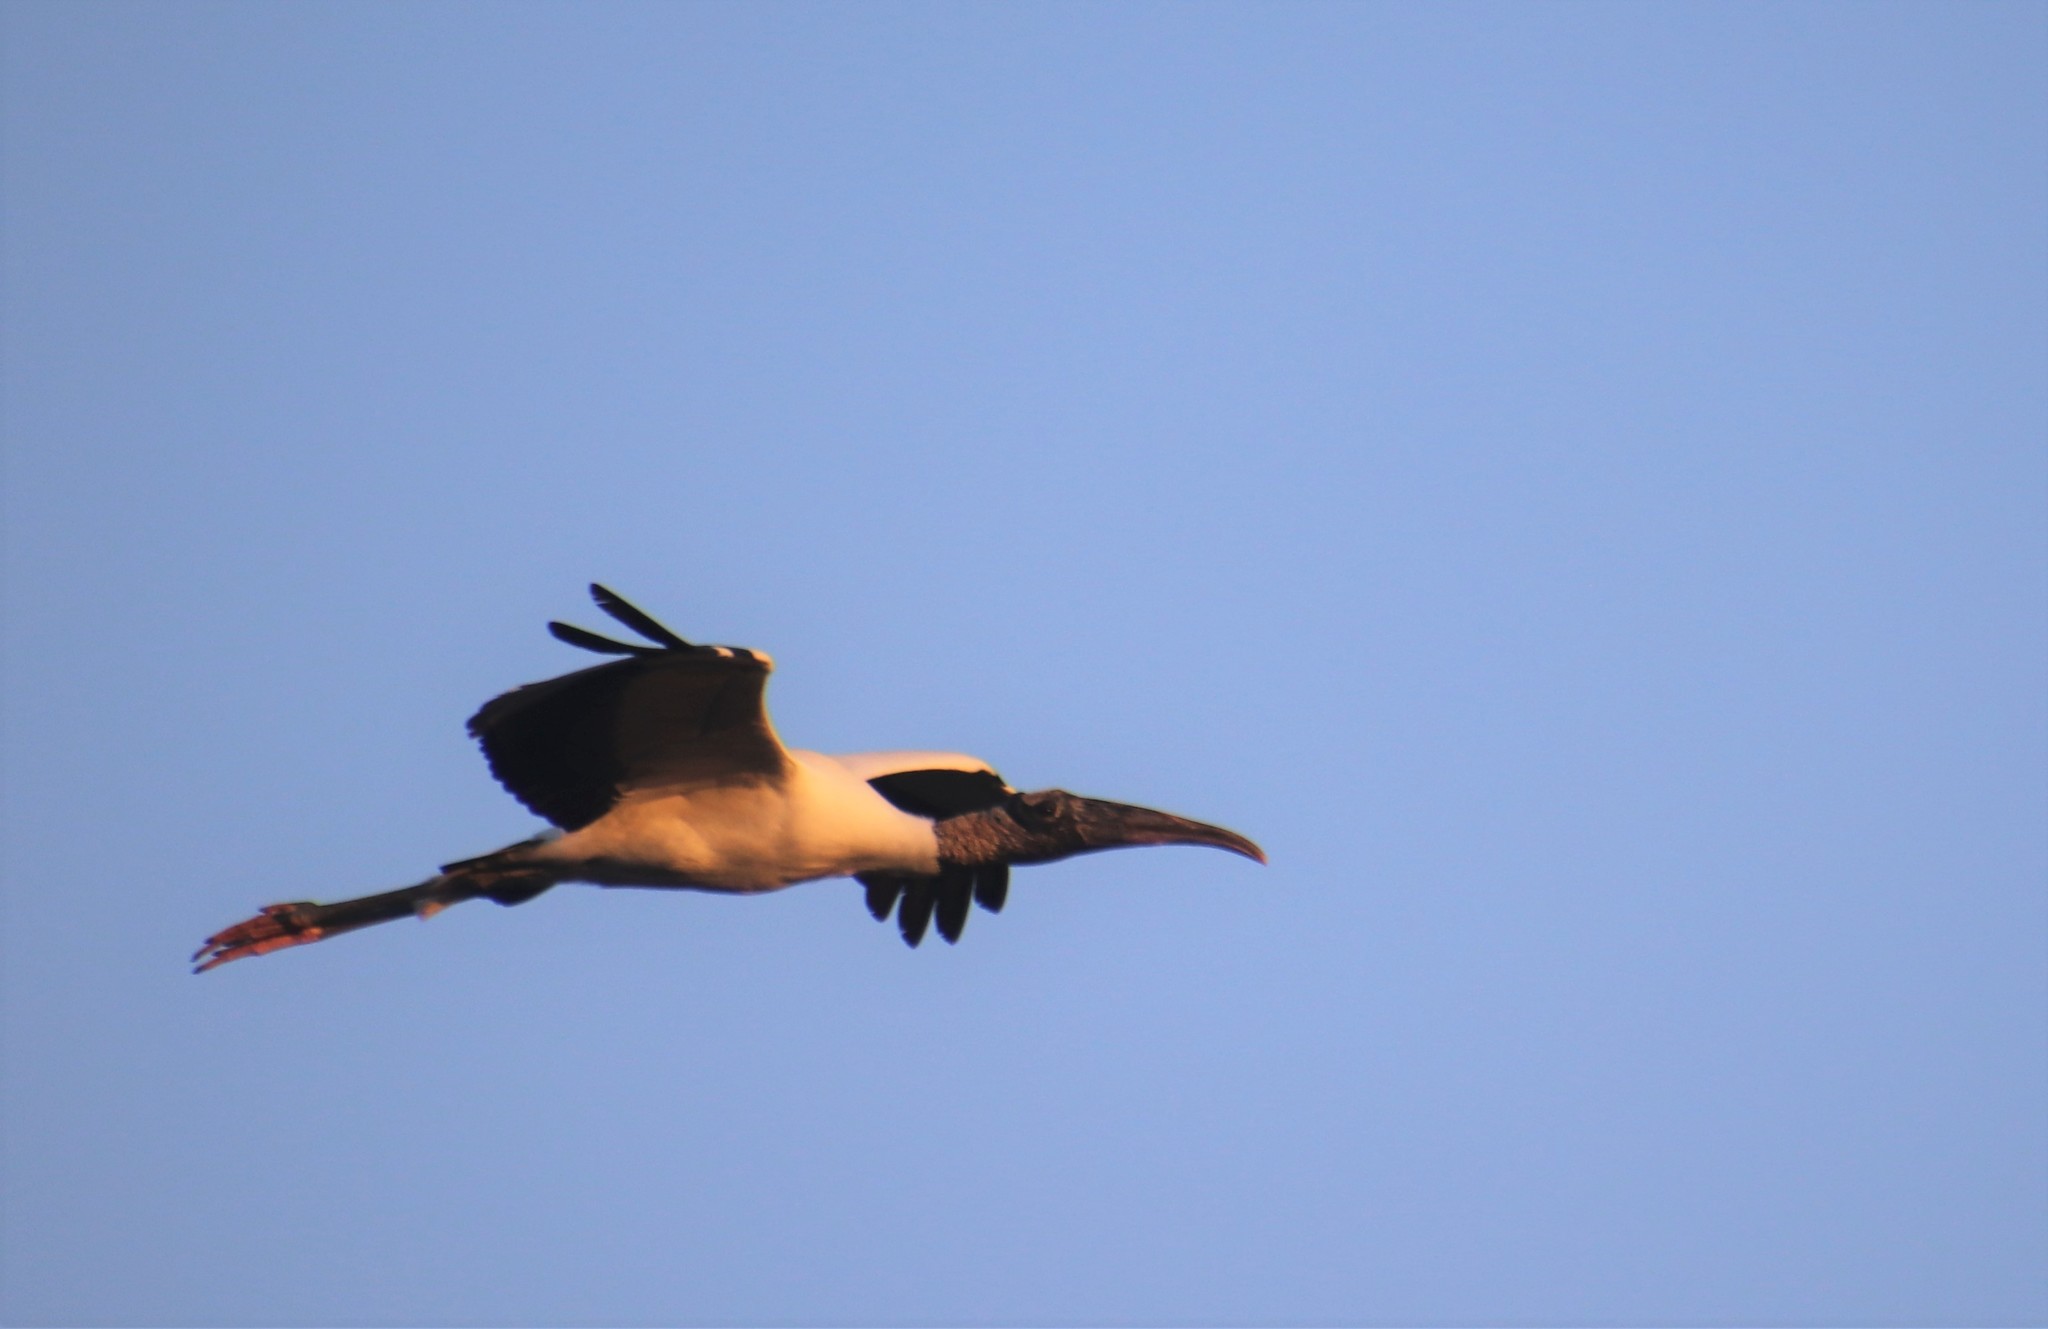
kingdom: Animalia
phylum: Chordata
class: Aves
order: Ciconiiformes
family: Ciconiidae
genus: Mycteria
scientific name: Mycteria americana
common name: Wood stork
